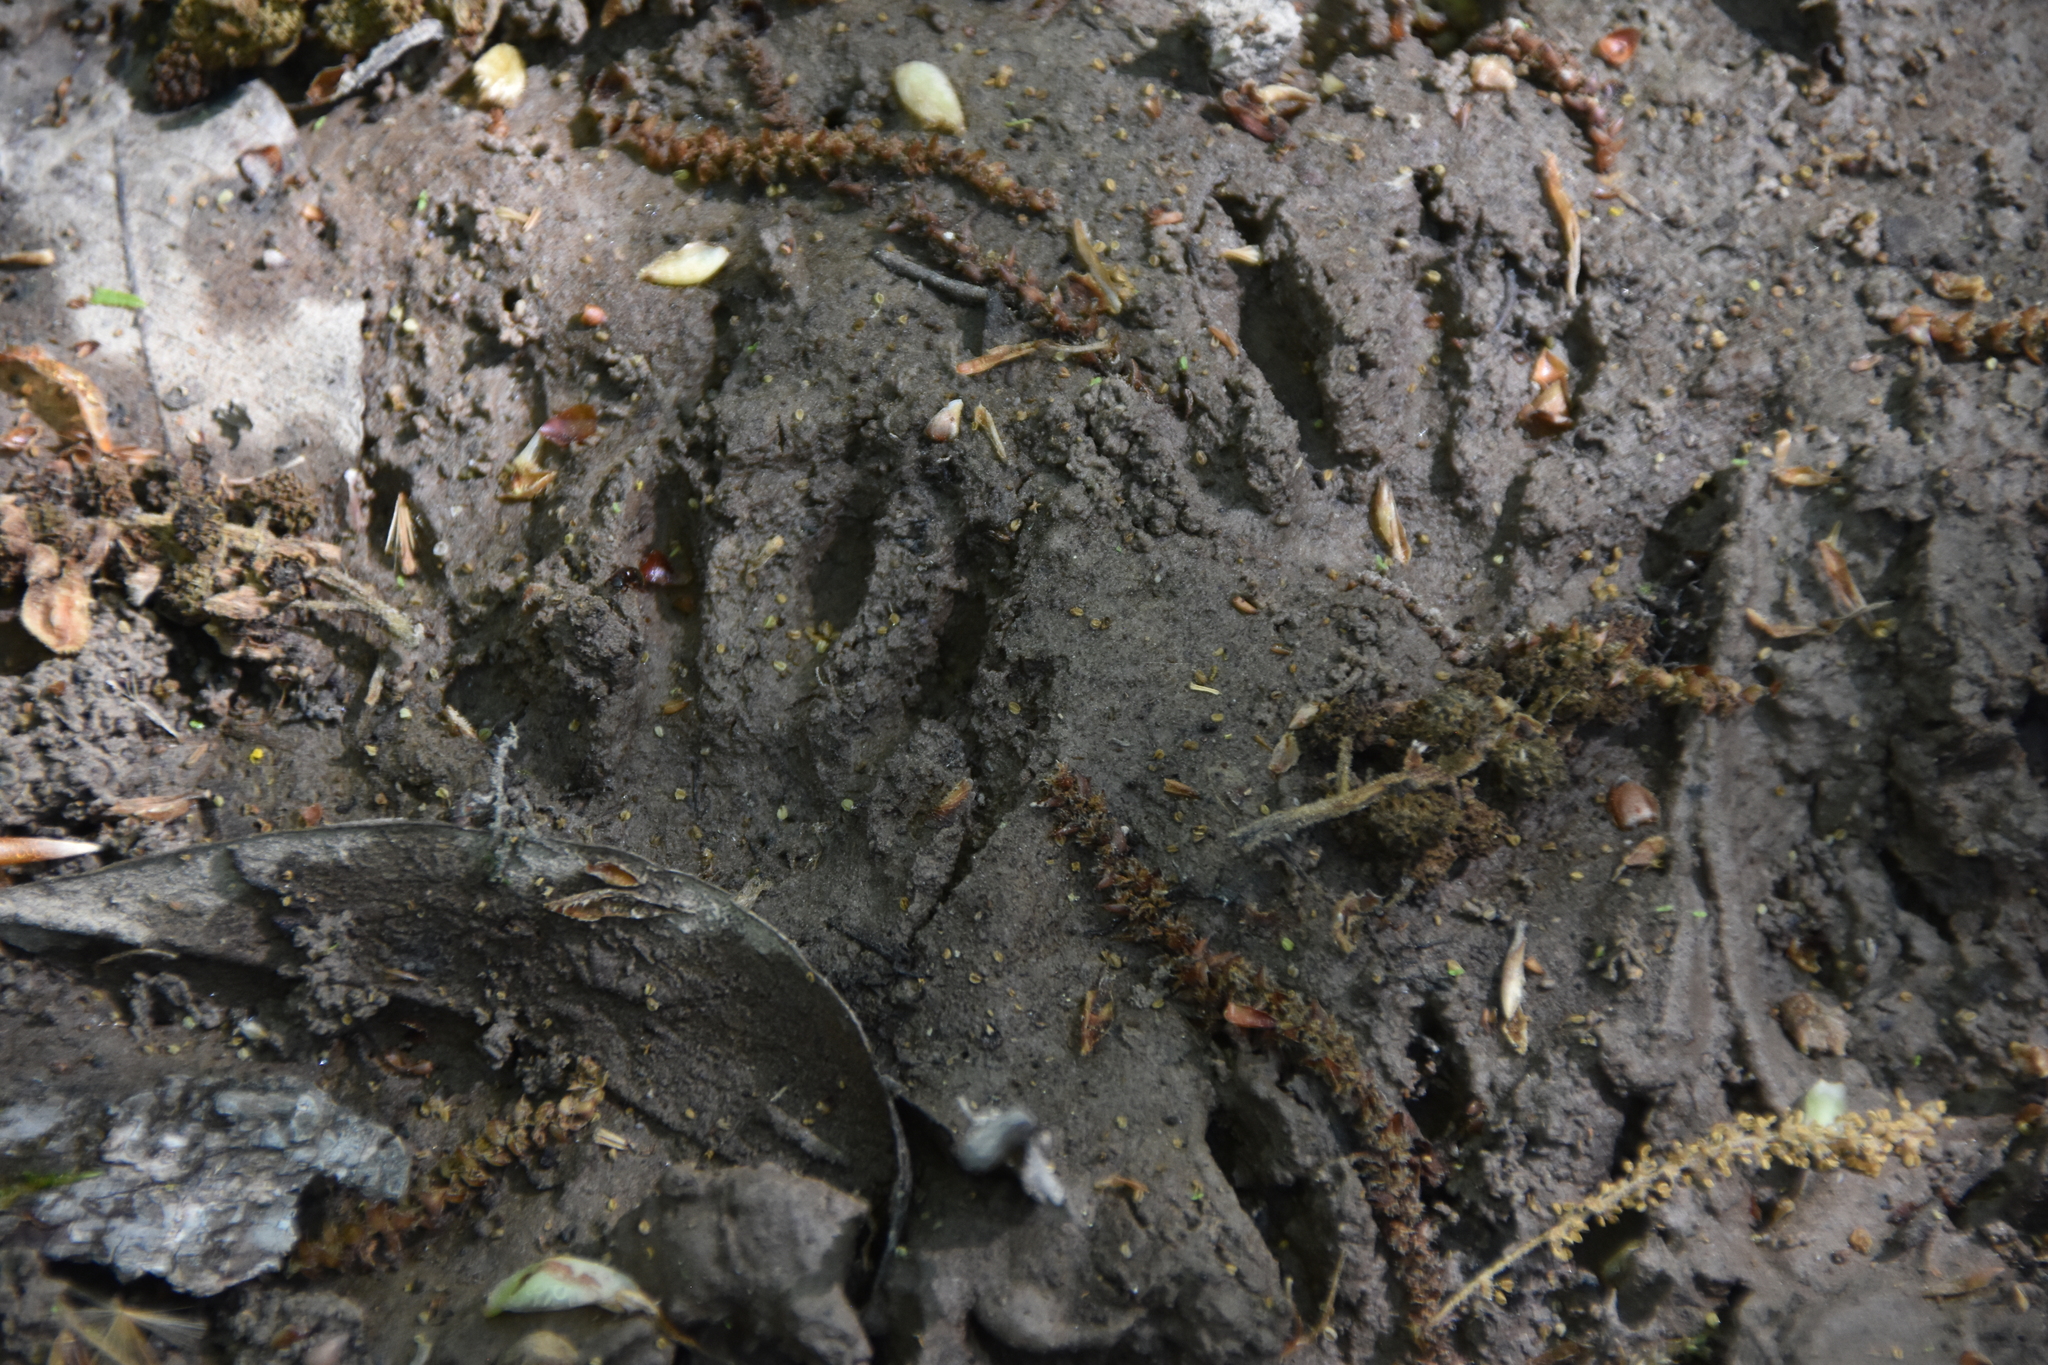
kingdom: Animalia
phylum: Chordata
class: Mammalia
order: Carnivora
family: Procyonidae
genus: Procyon
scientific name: Procyon lotor
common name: Raccoon
